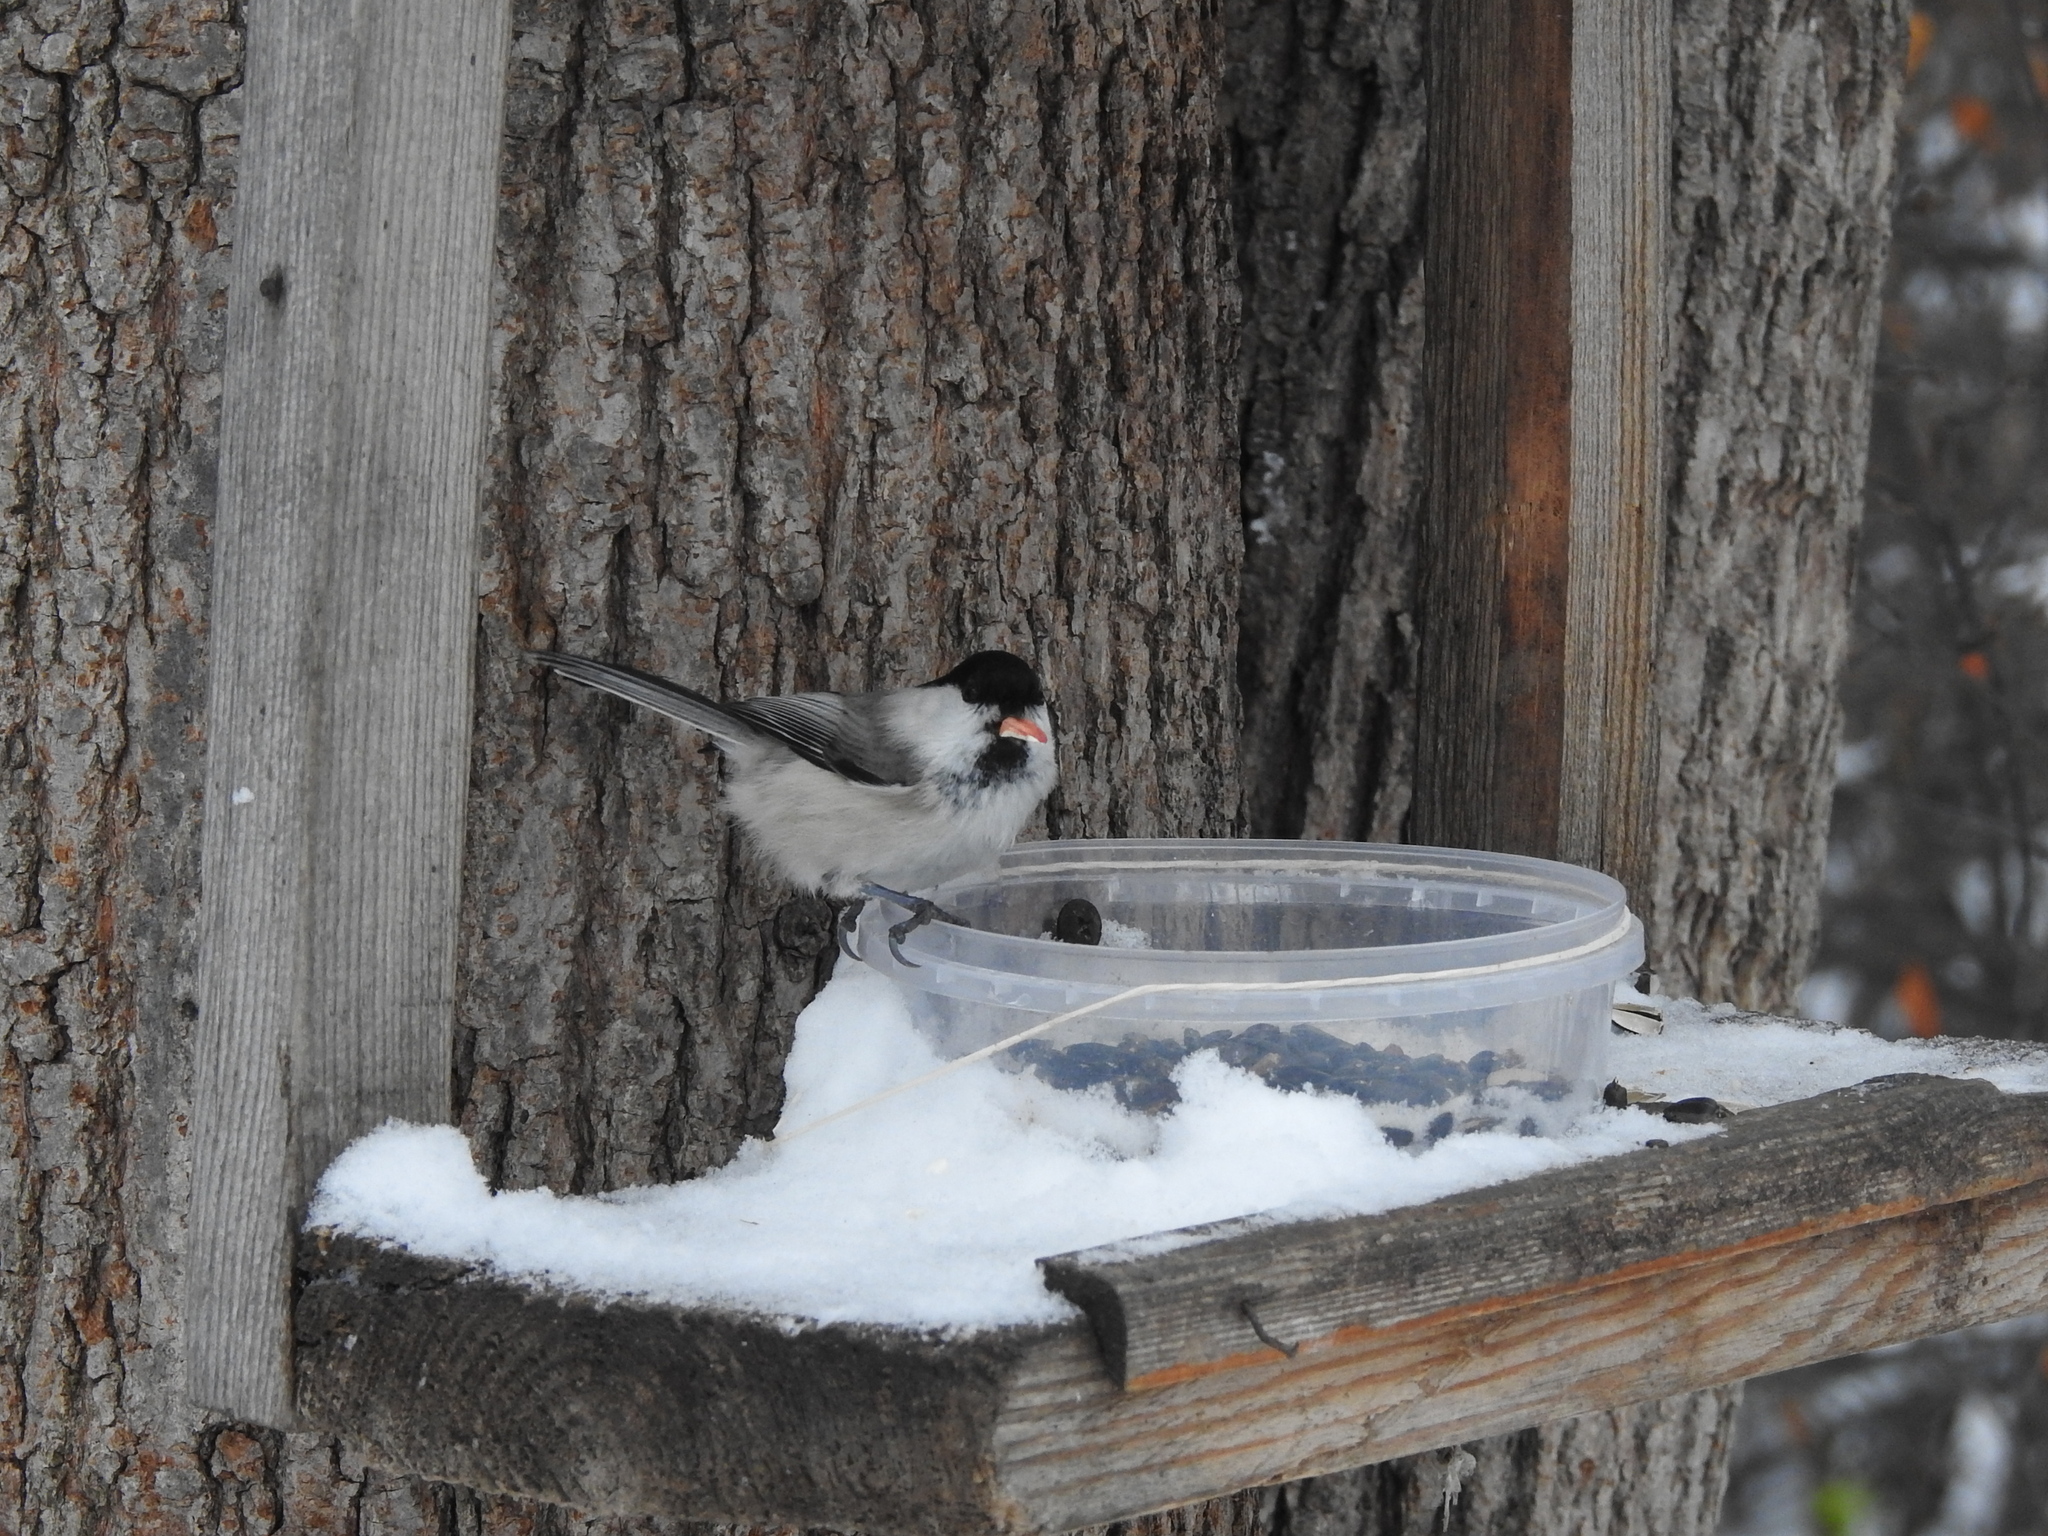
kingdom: Animalia
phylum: Chordata
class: Aves
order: Passeriformes
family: Paridae
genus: Poecile
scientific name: Poecile montanus
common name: Willow tit
